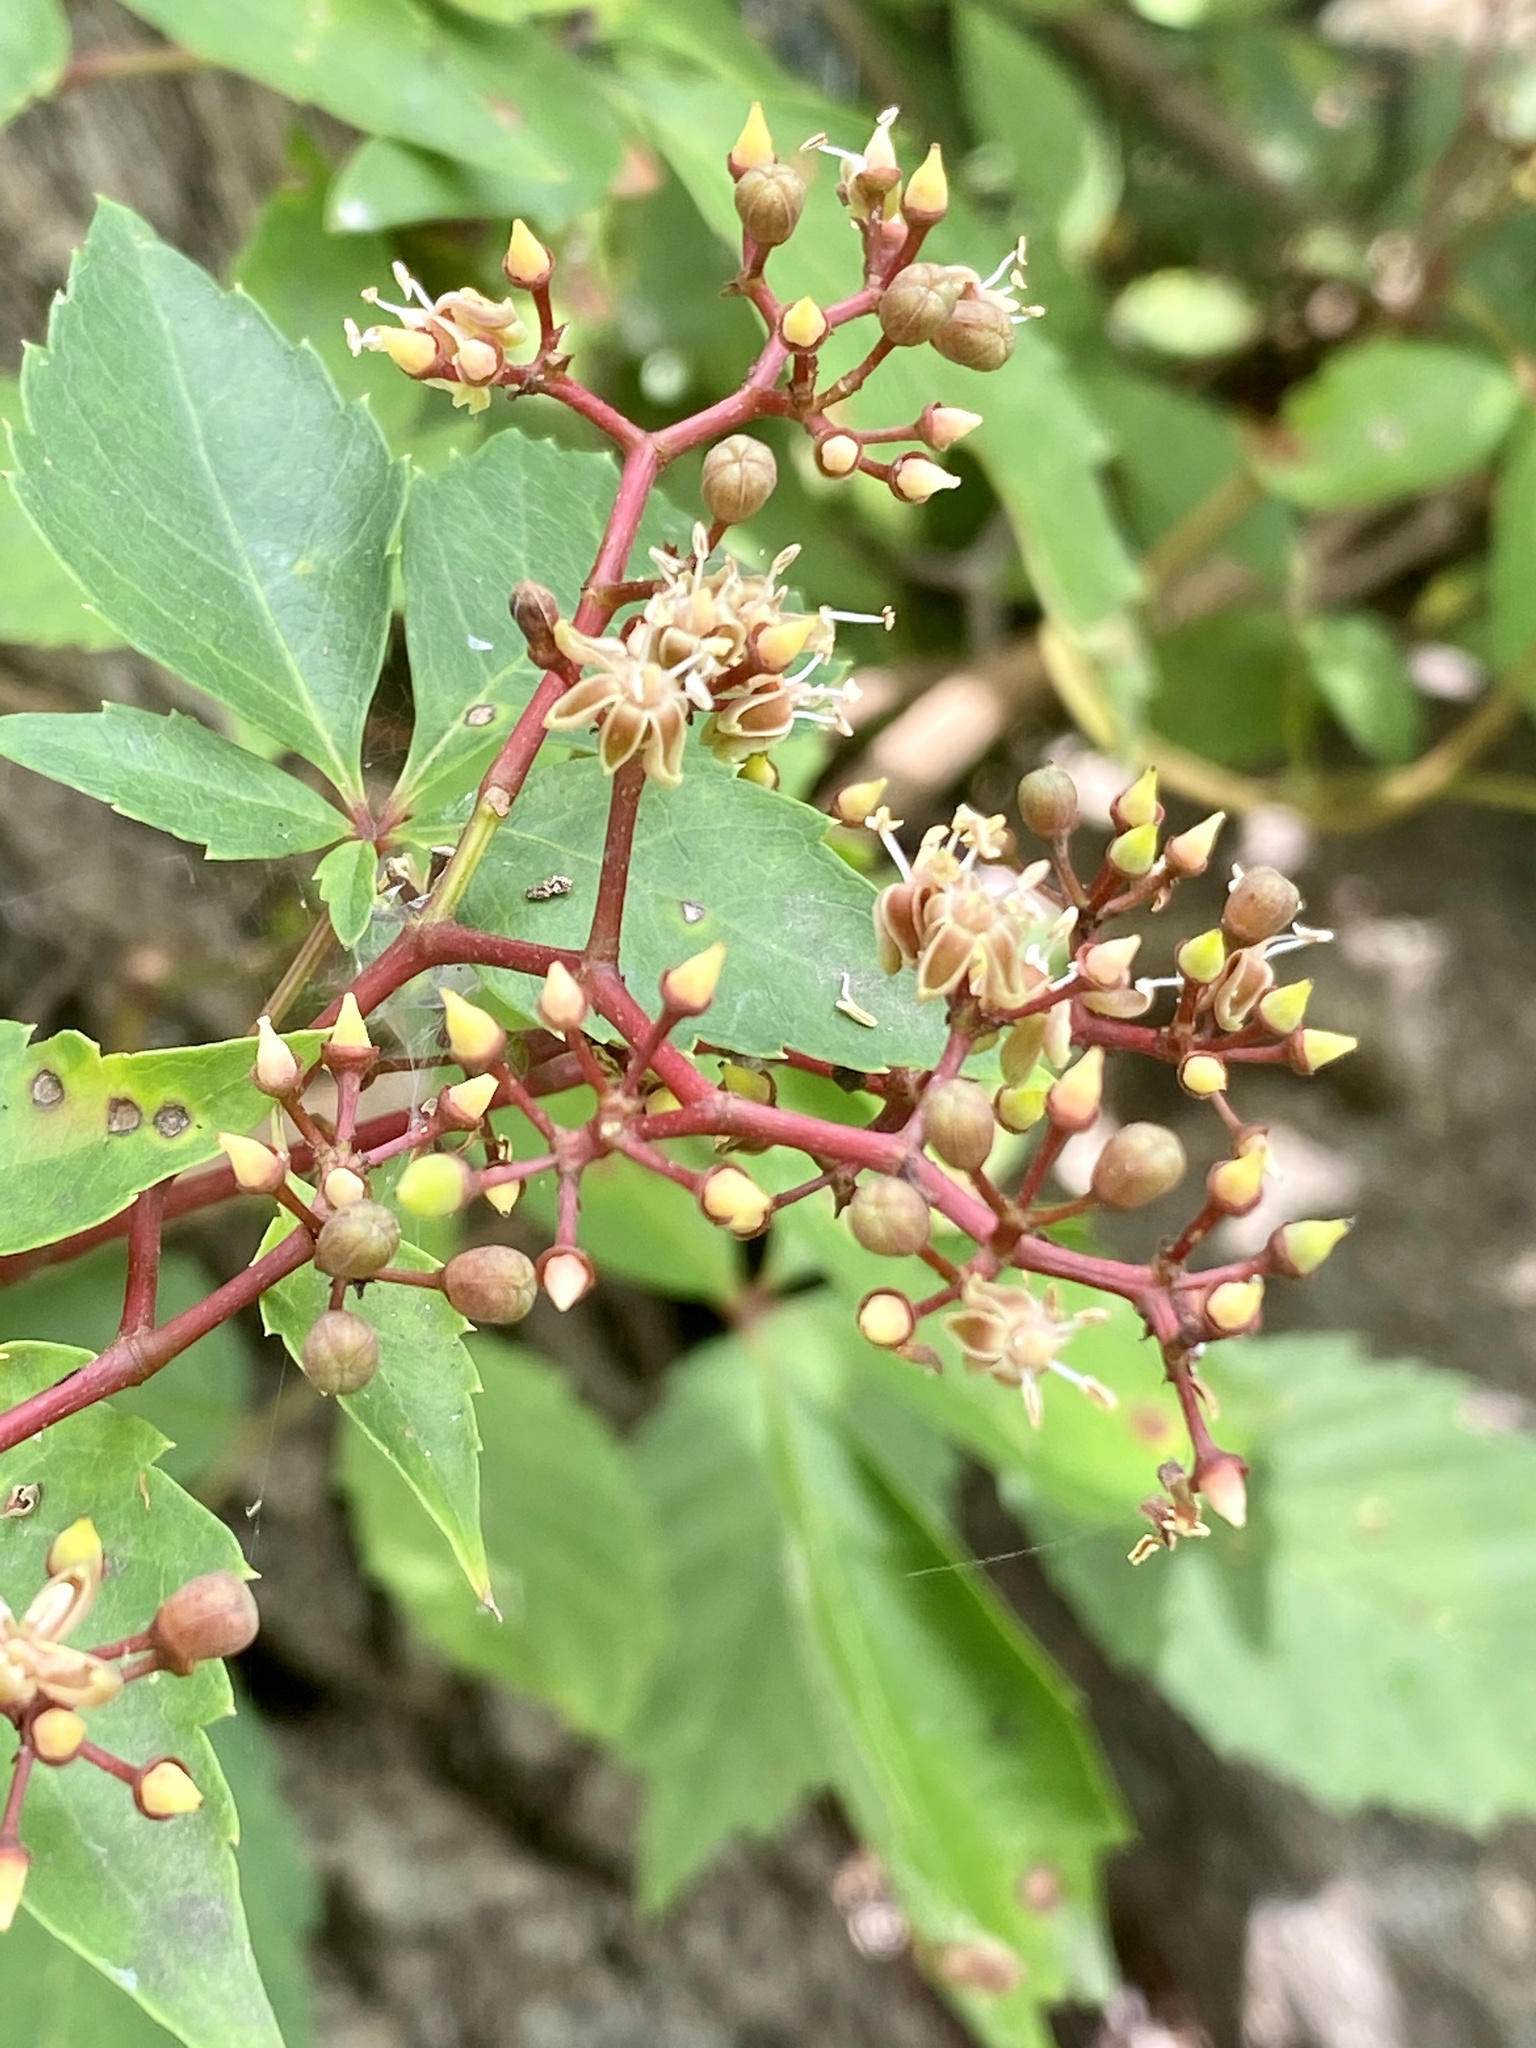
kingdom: Plantae
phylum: Tracheophyta
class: Magnoliopsida
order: Vitales
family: Vitaceae
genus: Parthenocissus
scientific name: Parthenocissus quinquefolia
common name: Virginia-creeper
